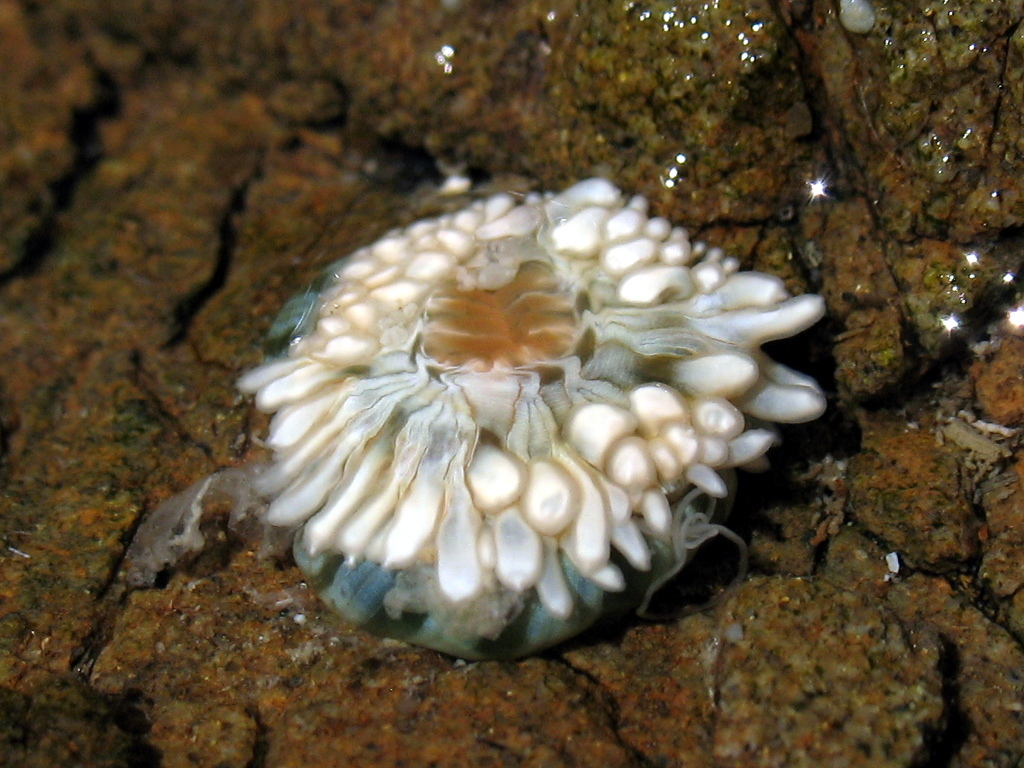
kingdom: Animalia
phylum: Cnidaria
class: Anthozoa
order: Actiniaria
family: Sagartiidae
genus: Anthothoe
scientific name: Anthothoe albocincta
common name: Orange striped anemone
